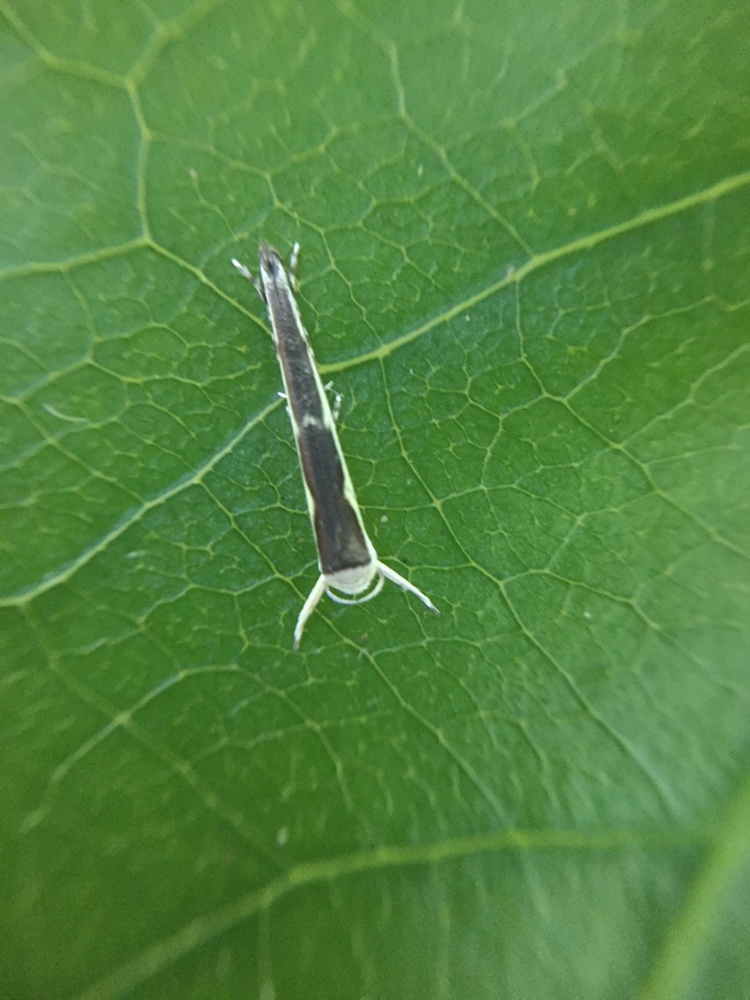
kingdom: Animalia
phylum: Arthropoda
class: Insecta
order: Lepidoptera
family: Roeslerstammiidae
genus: Vanicela
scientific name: Vanicela disjunctella
